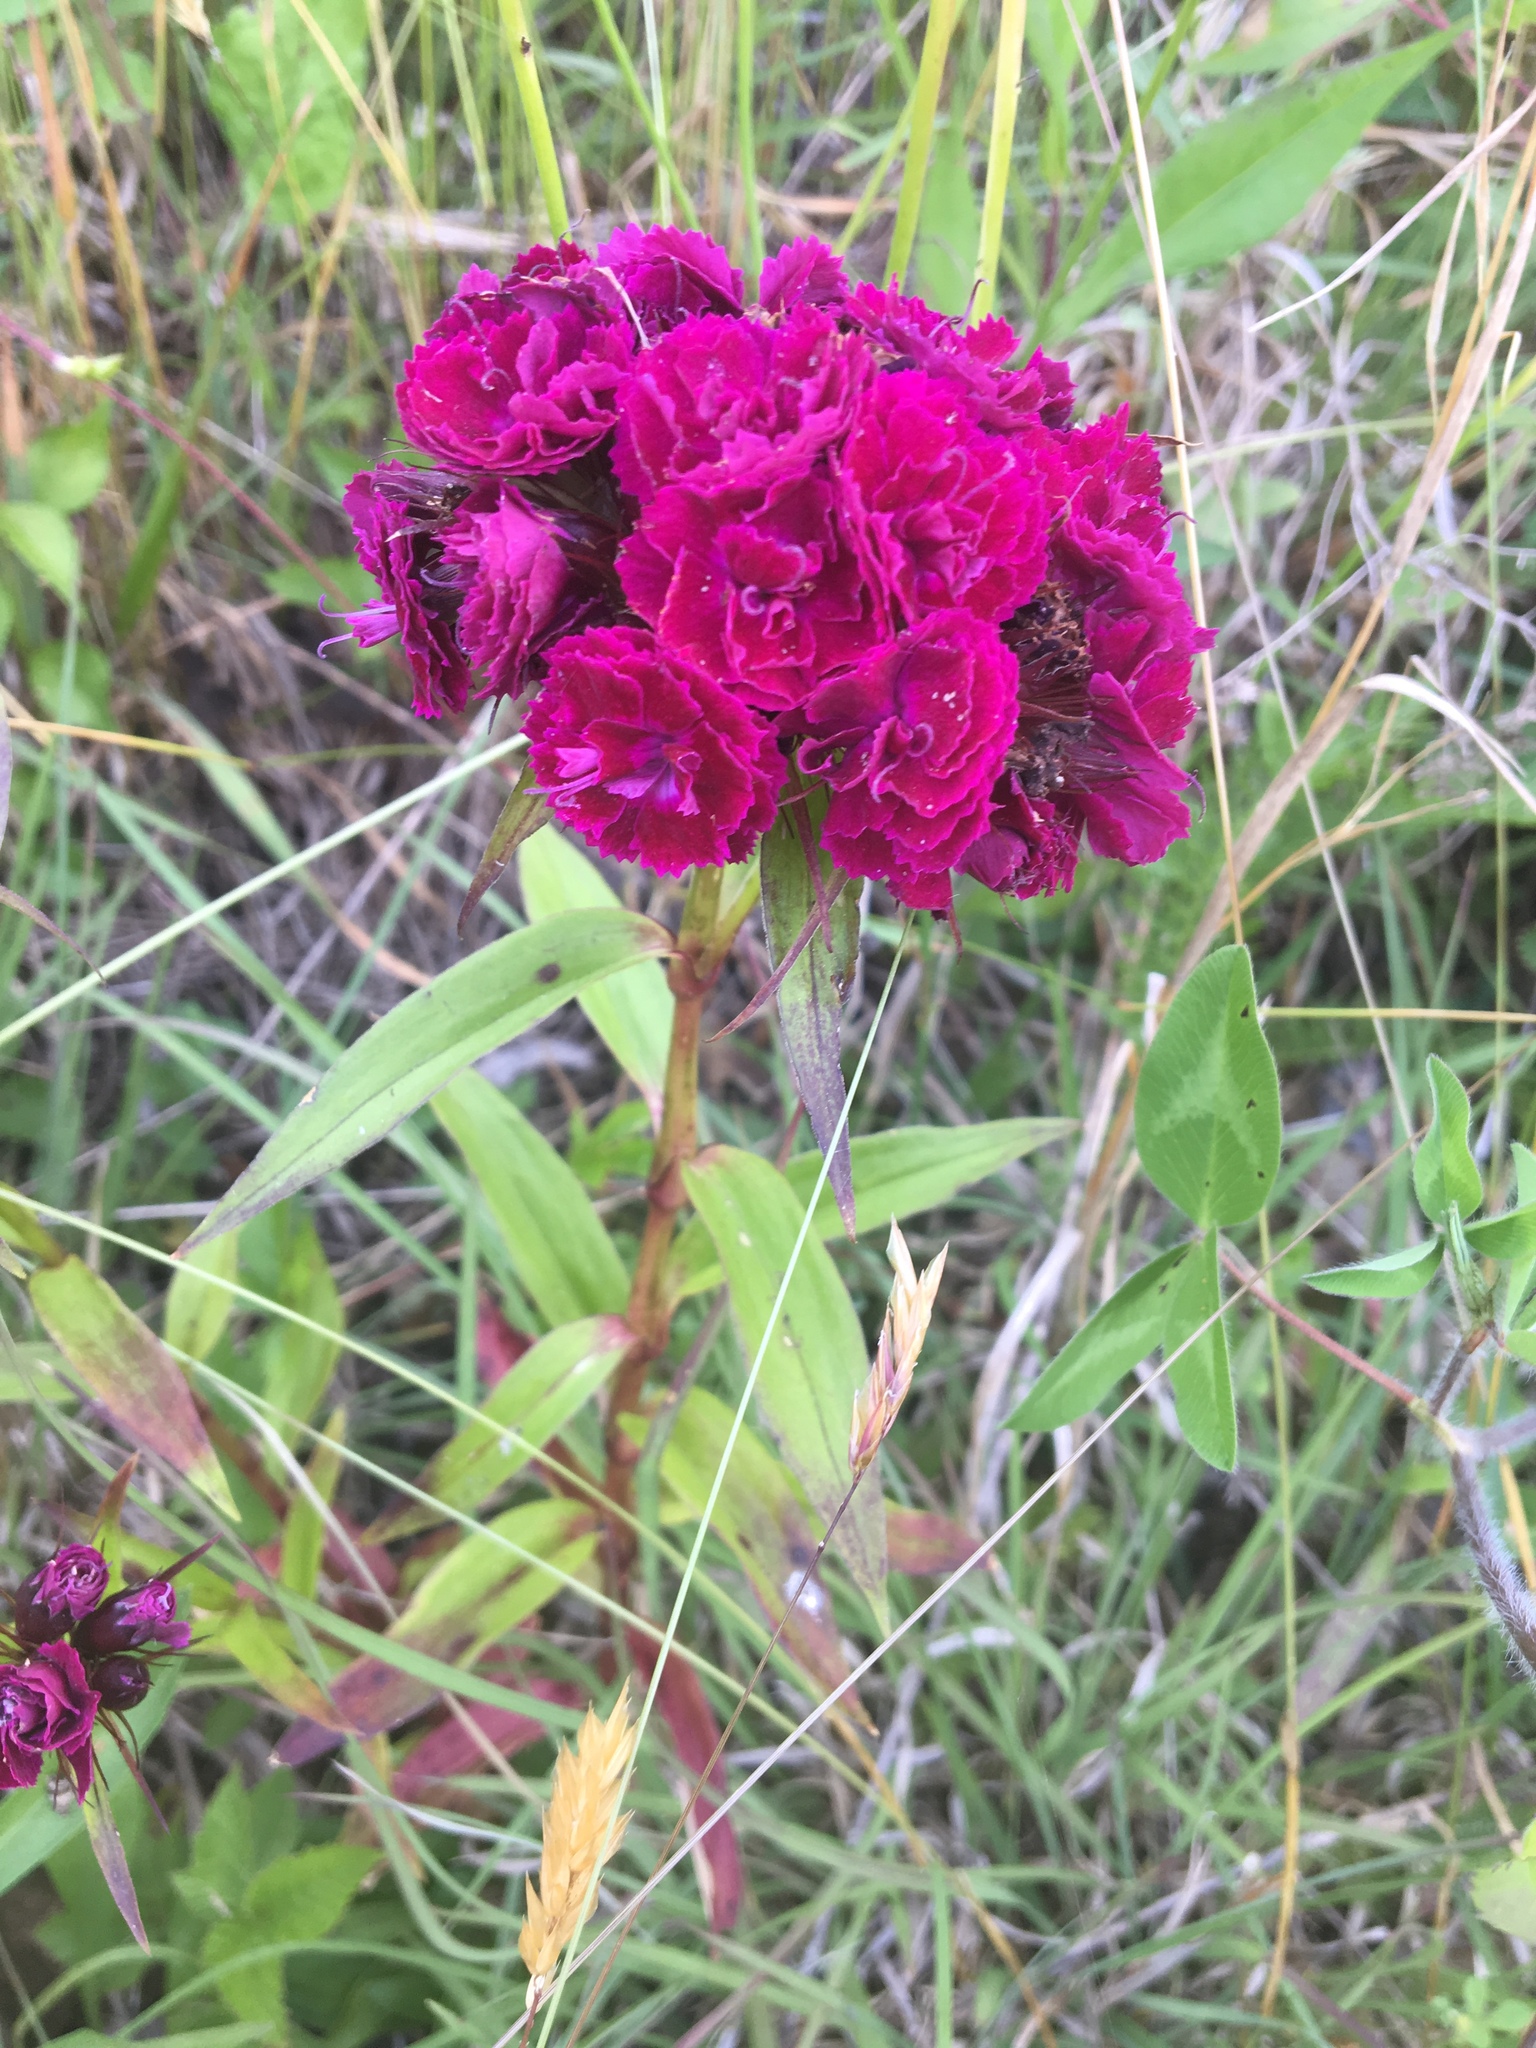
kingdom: Plantae
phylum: Tracheophyta
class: Magnoliopsida
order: Caryophyllales
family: Caryophyllaceae
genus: Dianthus
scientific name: Dianthus barbatus
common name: Sweet-william
